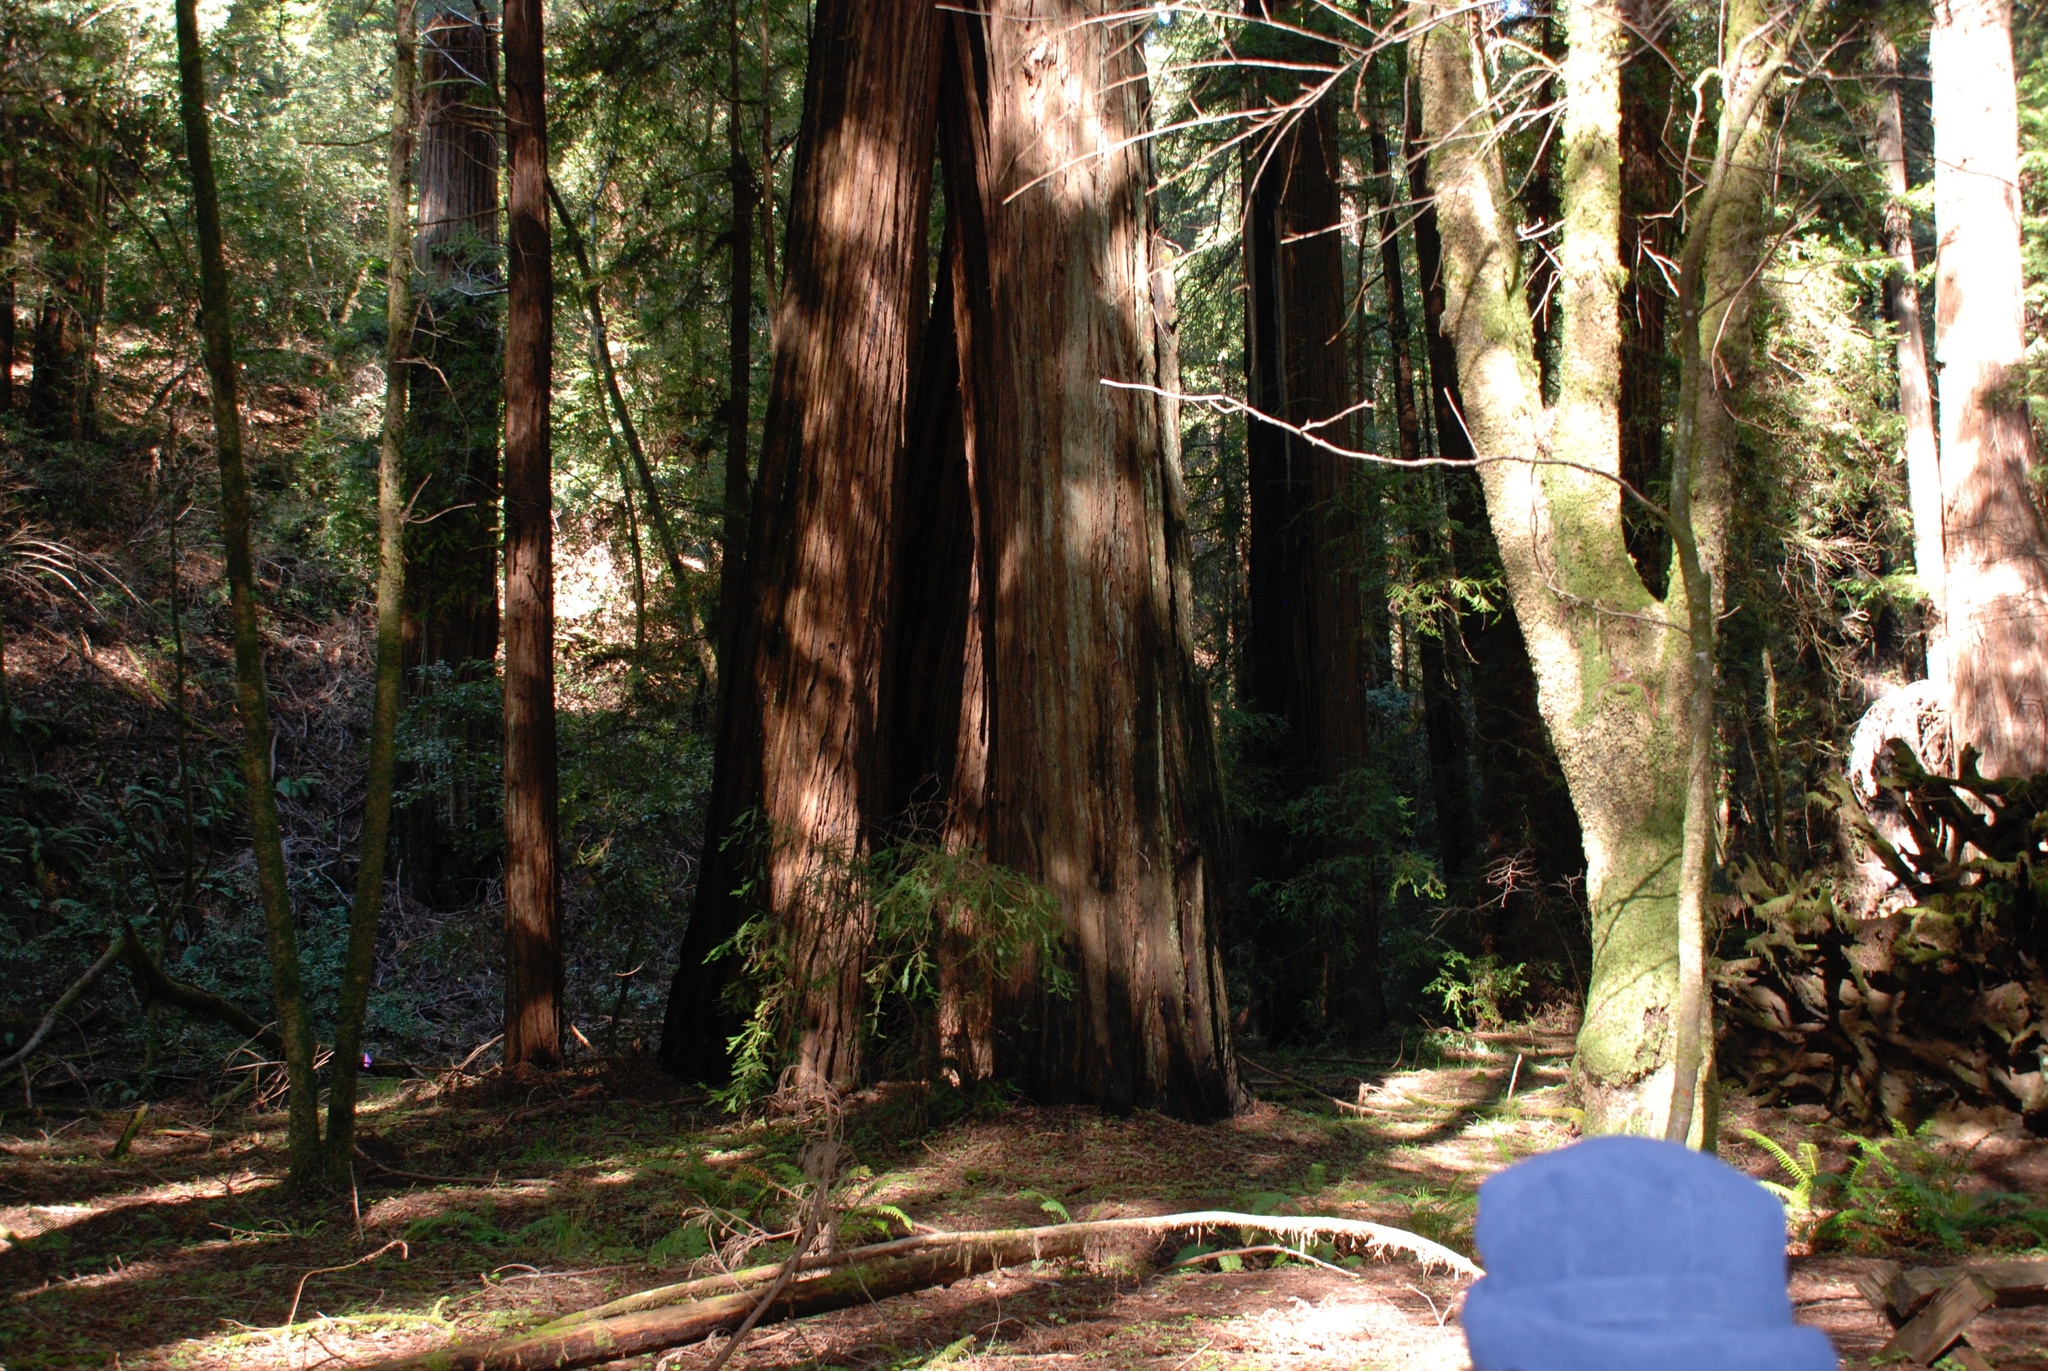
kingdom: Plantae
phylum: Tracheophyta
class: Pinopsida
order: Pinales
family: Cupressaceae
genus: Sequoia
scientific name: Sequoia sempervirens
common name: Coast redwood
